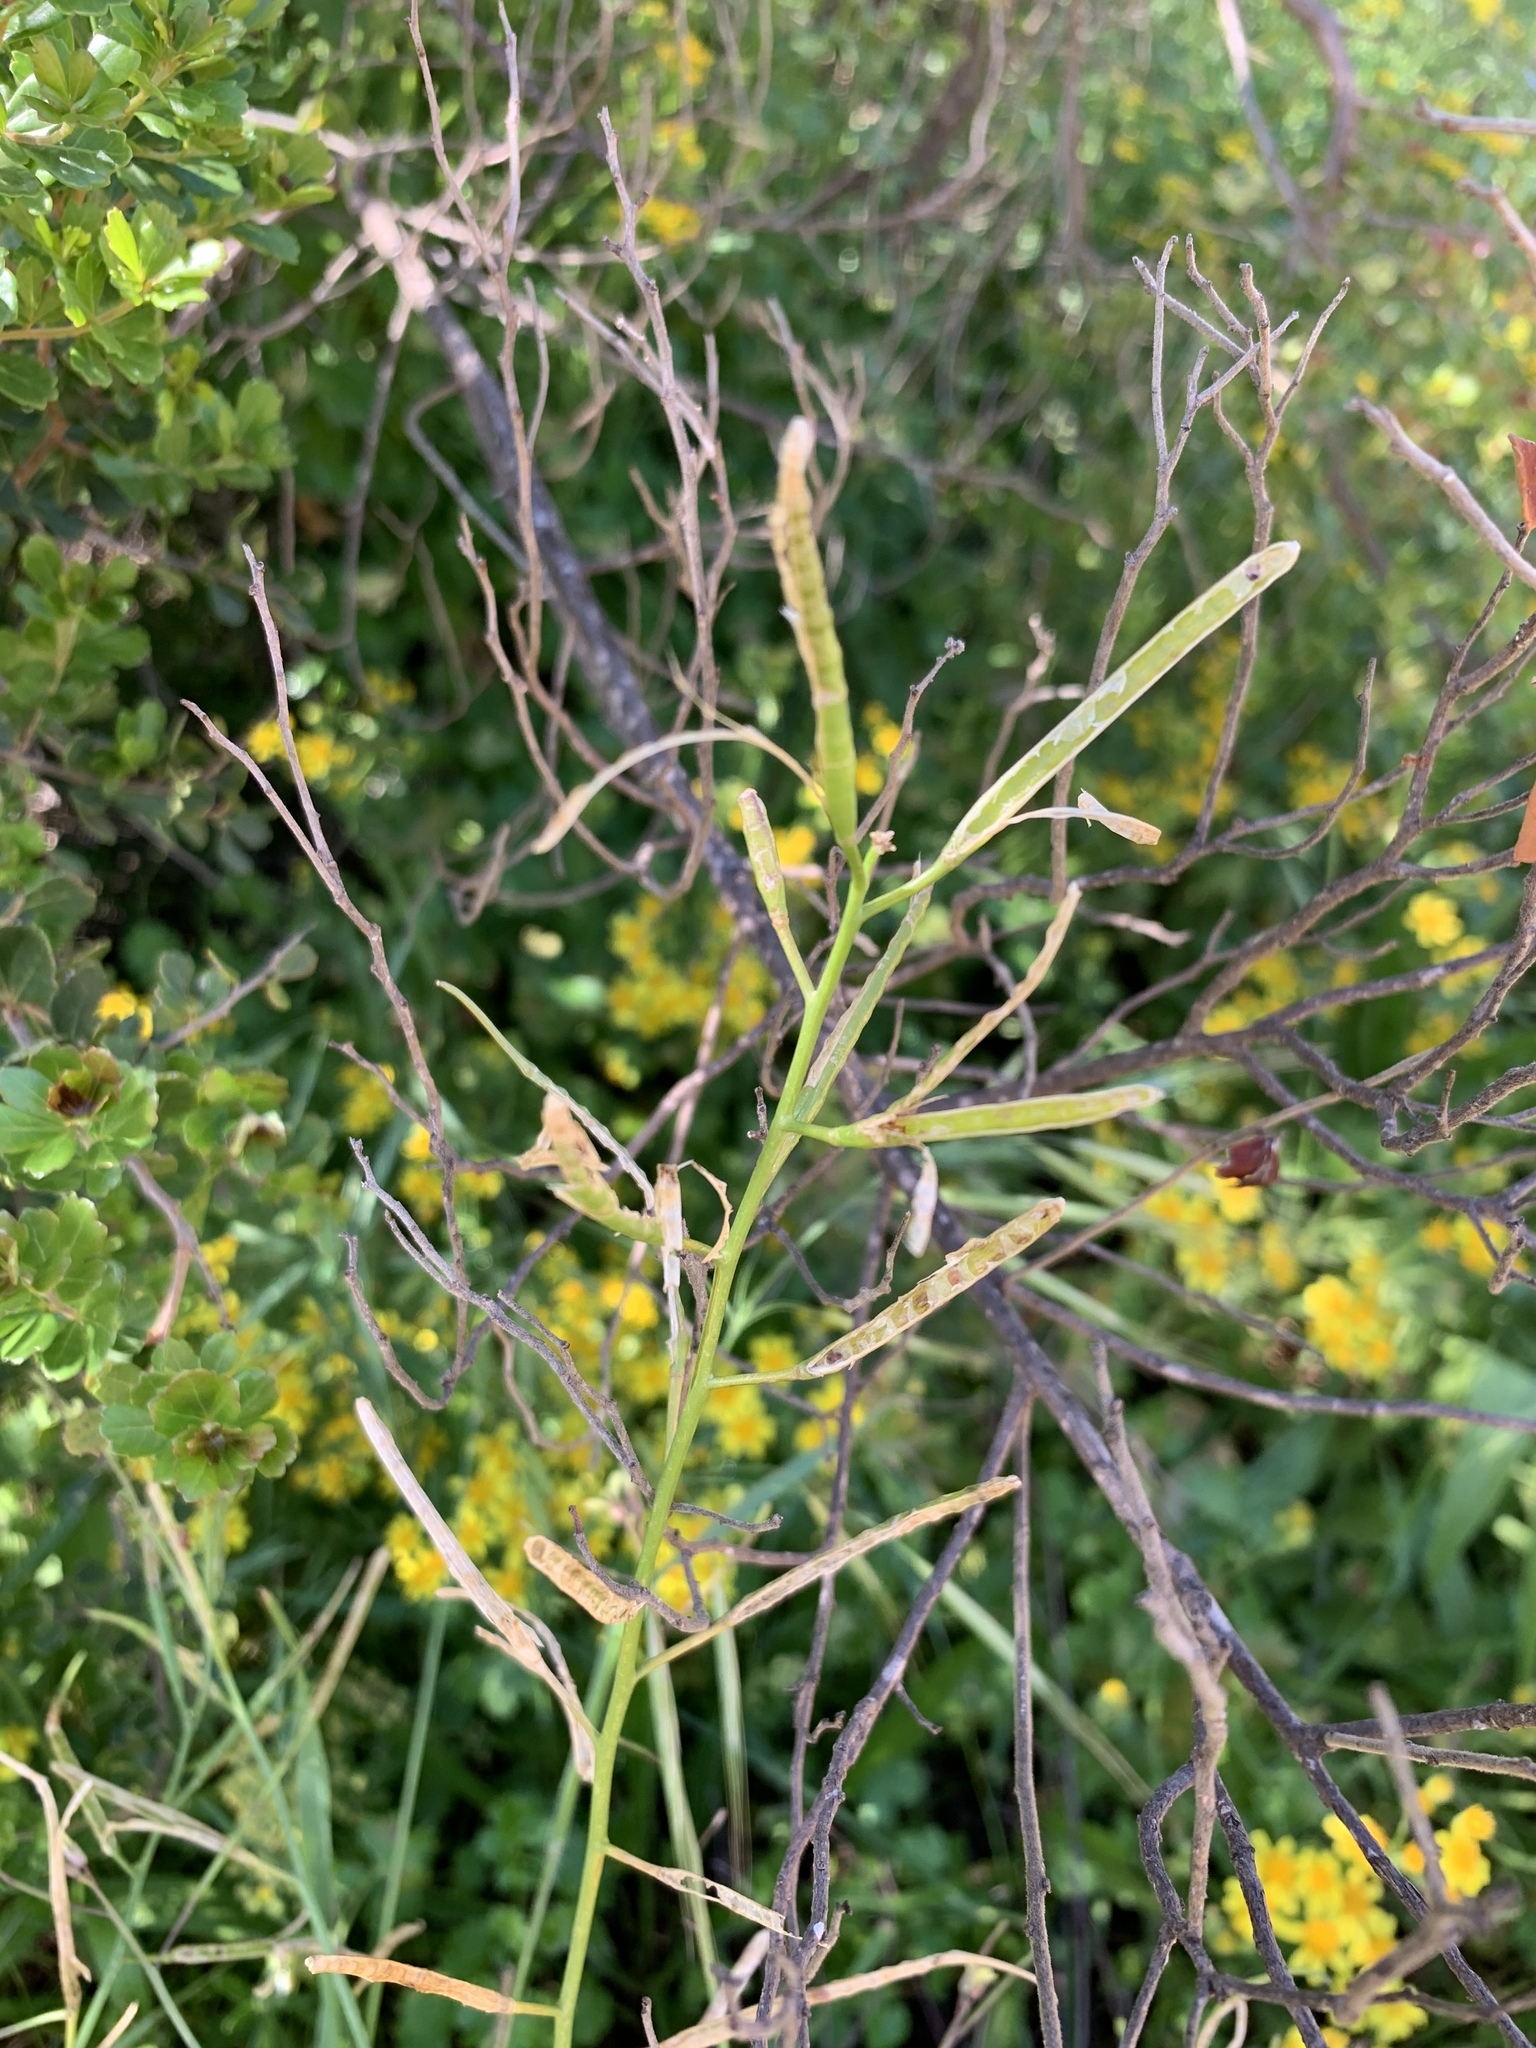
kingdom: Plantae
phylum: Tracheophyta
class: Magnoliopsida
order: Brassicales
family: Brassicaceae
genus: Brassica
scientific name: Brassica tournefortii
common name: Pale cabbage
